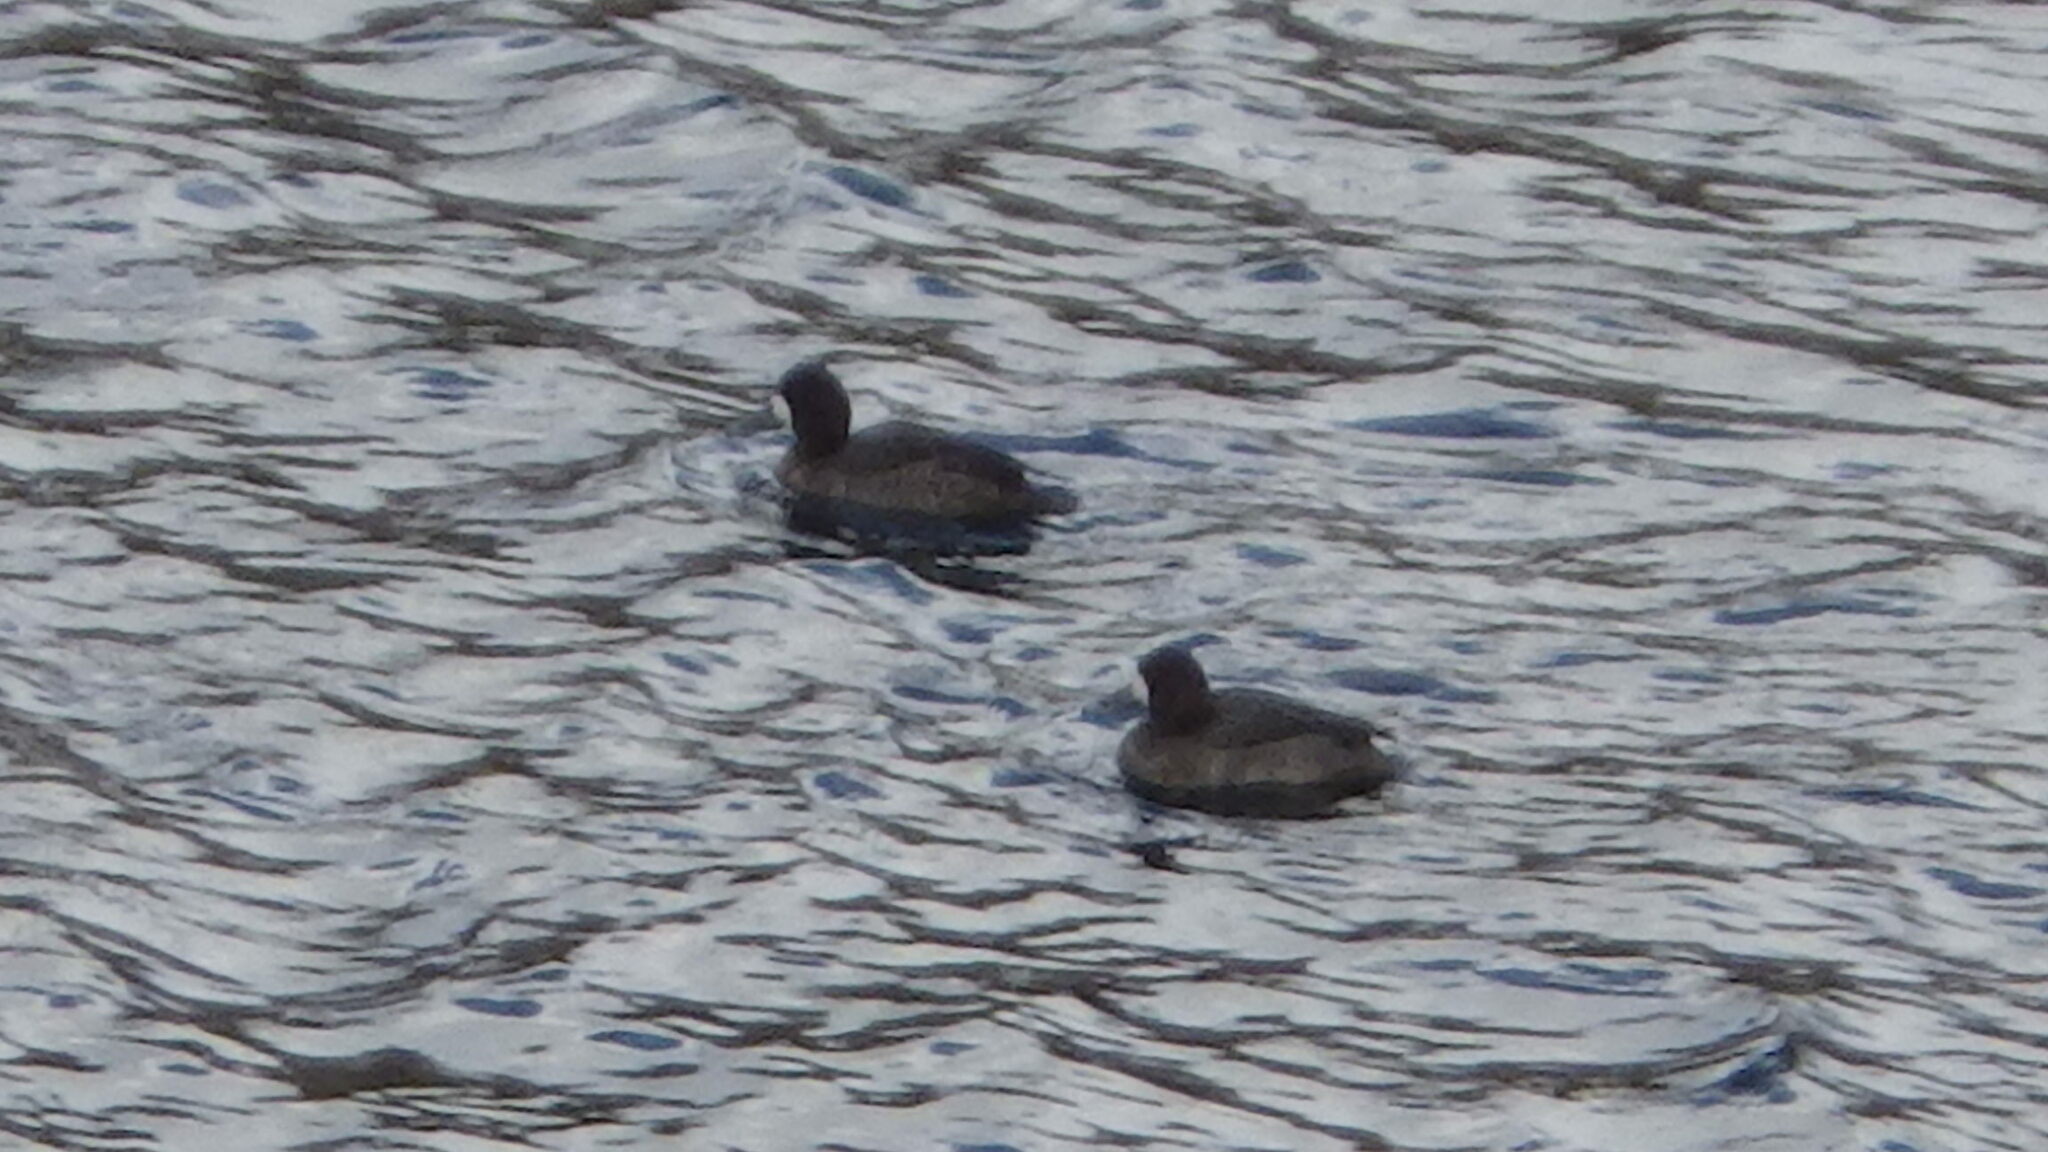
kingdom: Animalia
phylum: Chordata
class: Aves
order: Anseriformes
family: Anatidae
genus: Aythya
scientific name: Aythya marila
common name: Greater scaup
